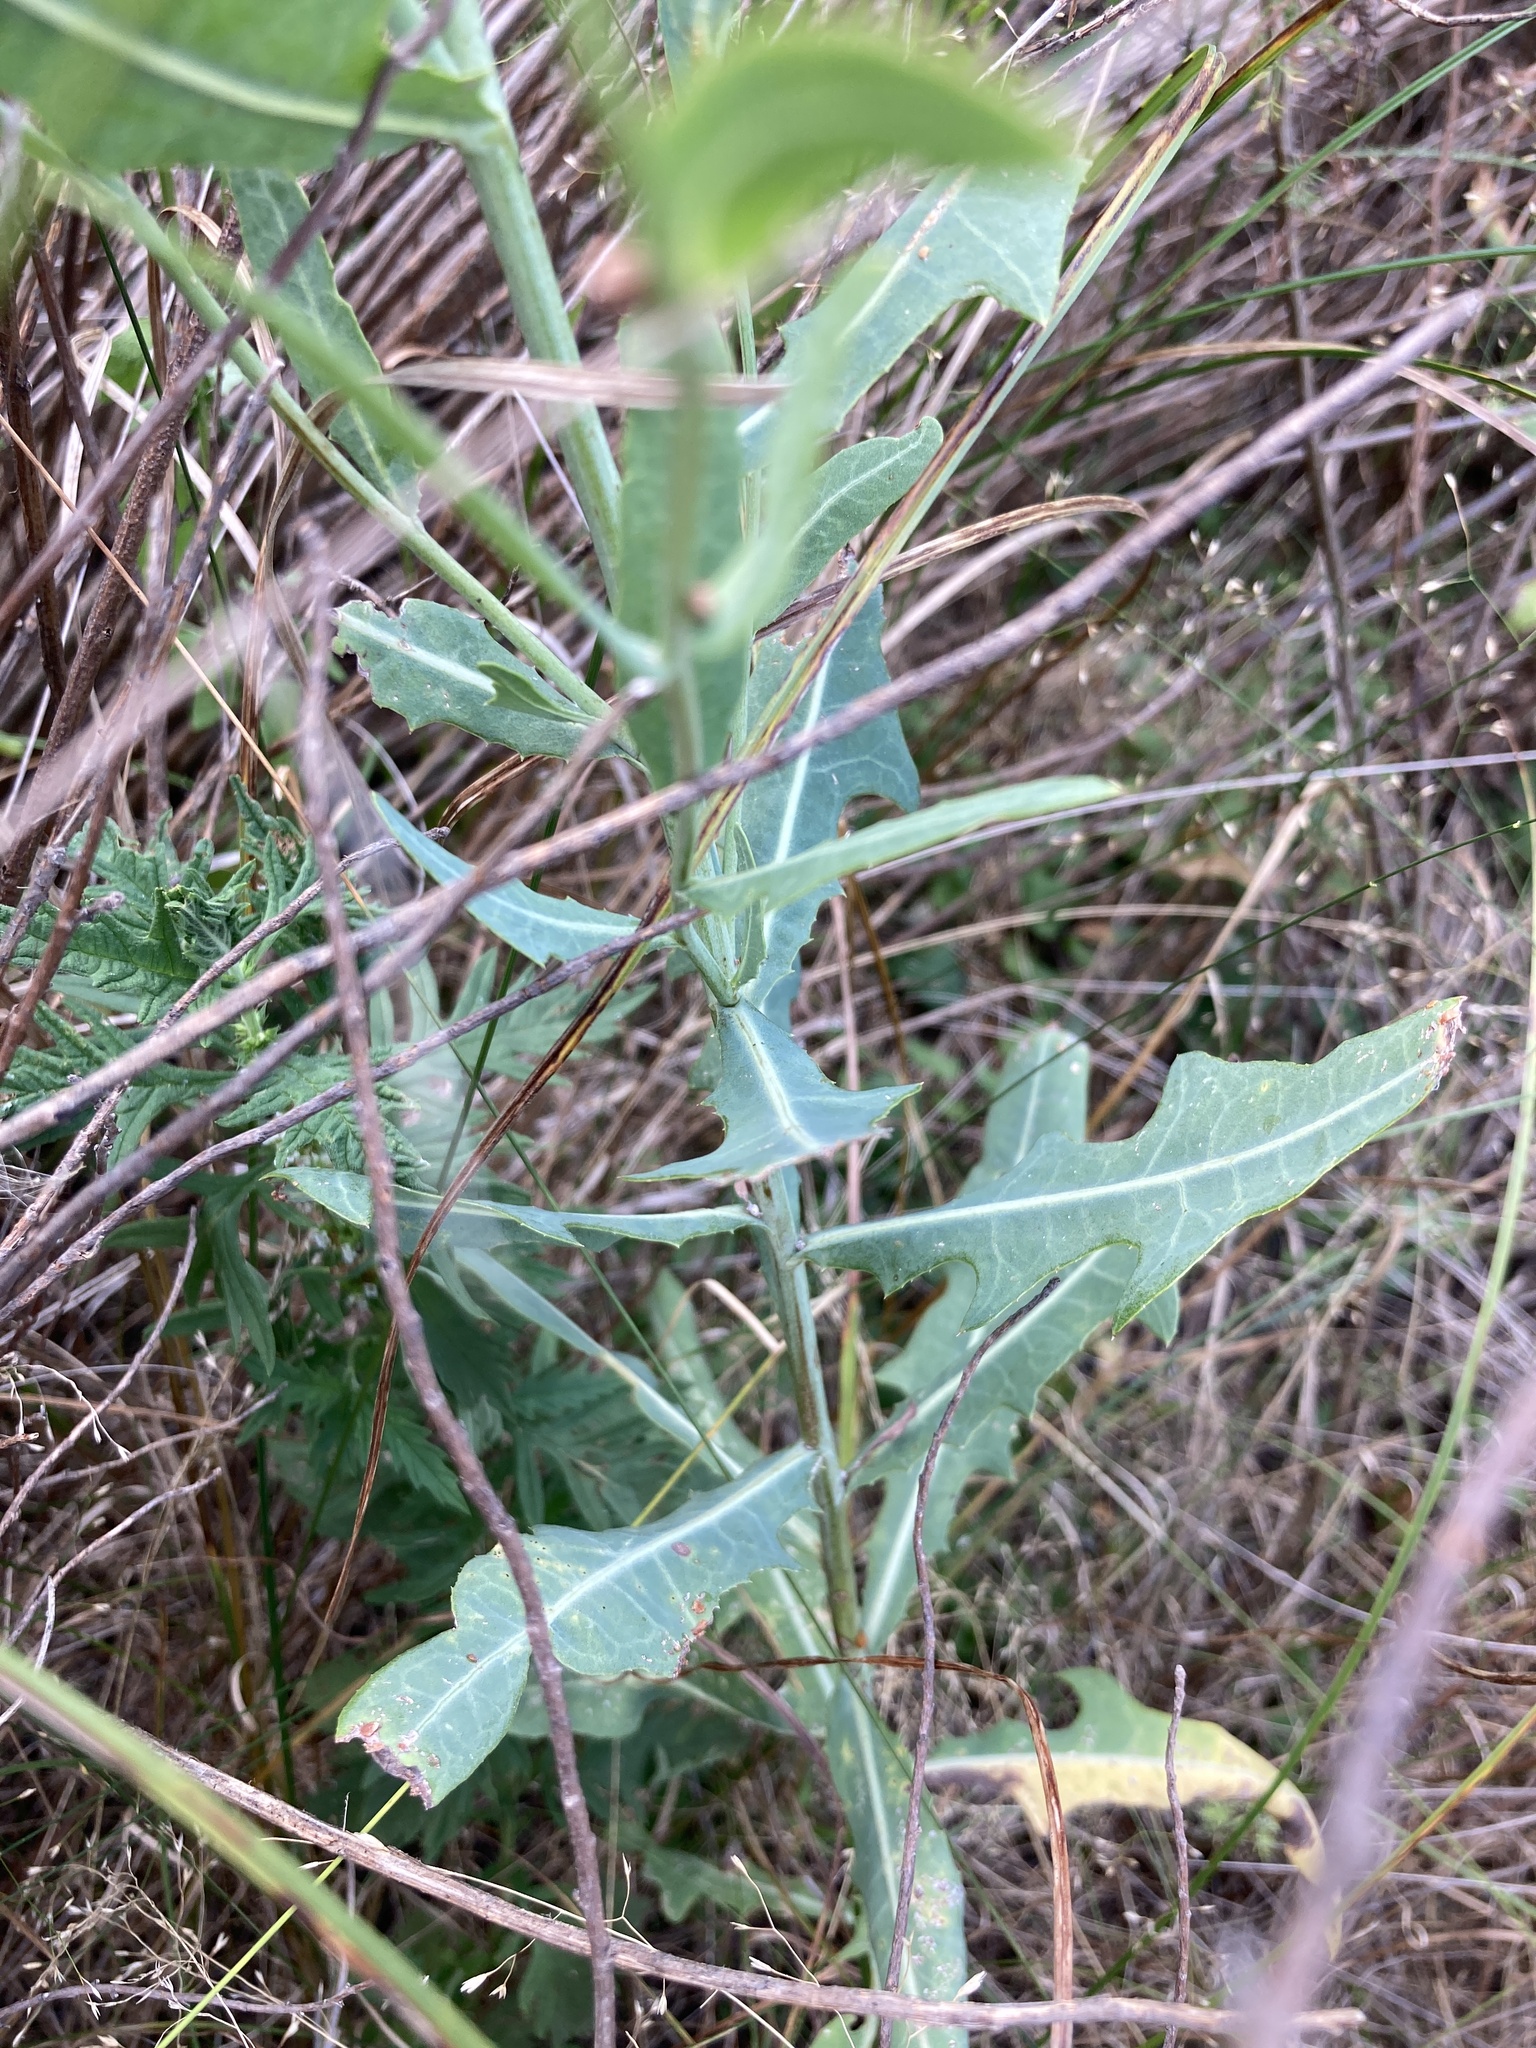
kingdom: Plantae
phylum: Tracheophyta
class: Magnoliopsida
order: Asterales
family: Asteraceae
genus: Lactuca
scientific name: Lactuca tatarica
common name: Blue lettuce
